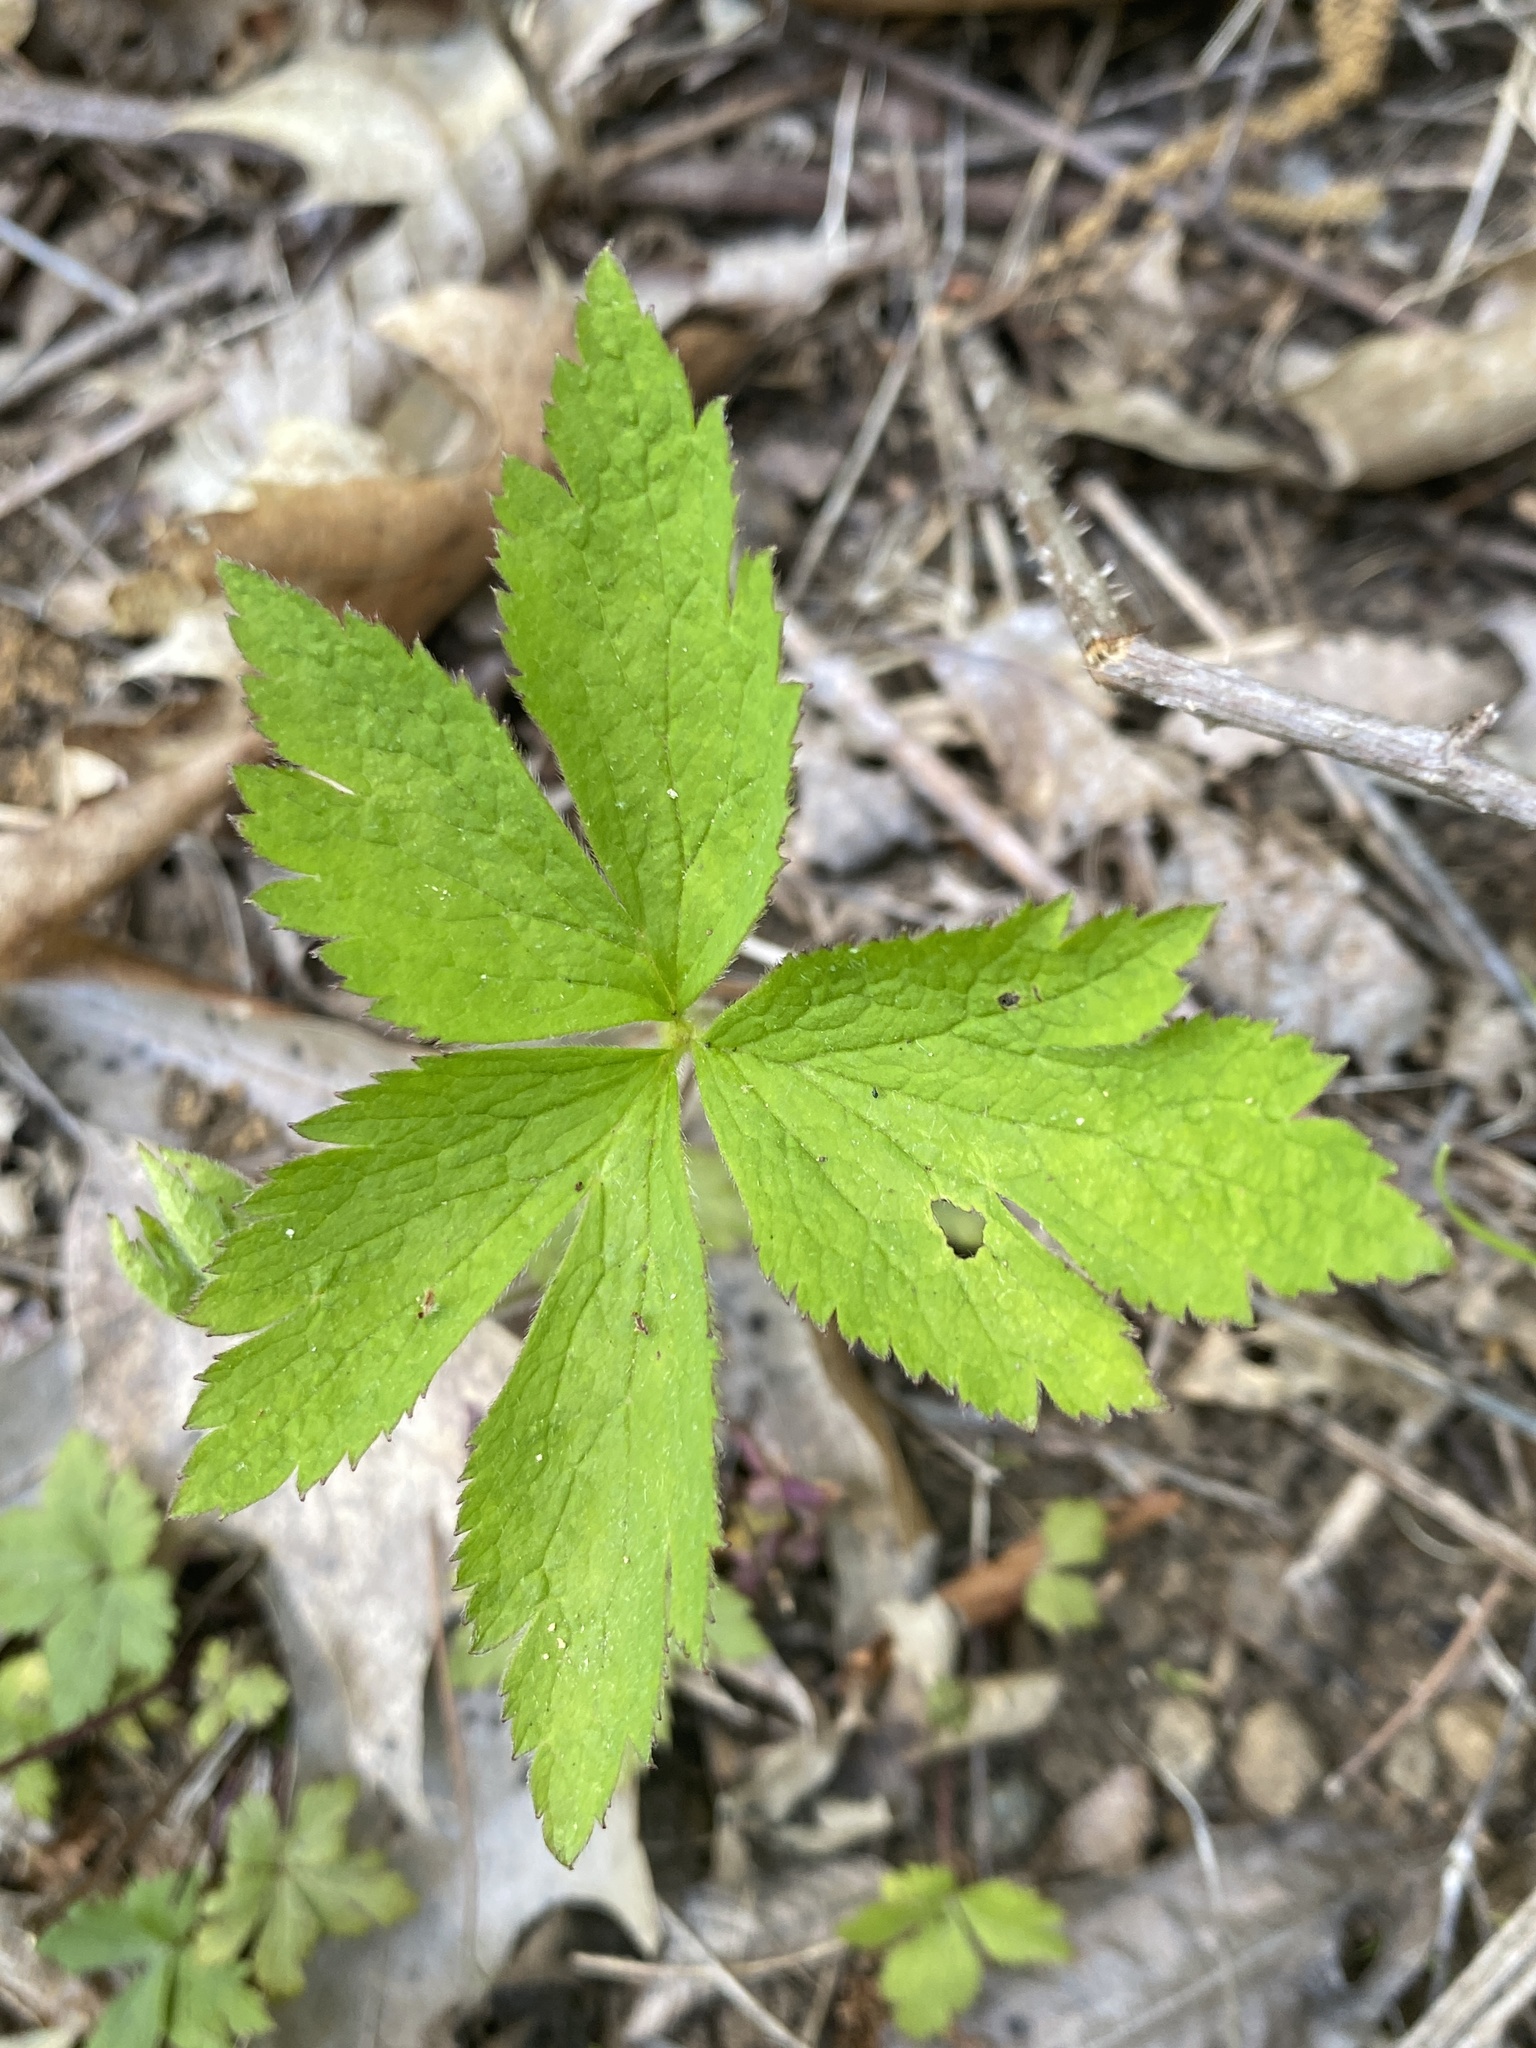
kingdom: Plantae
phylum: Tracheophyta
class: Magnoliopsida
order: Ranunculales
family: Ranunculaceae
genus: Anemone
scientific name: Anemone virginiana
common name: Tall anemone
